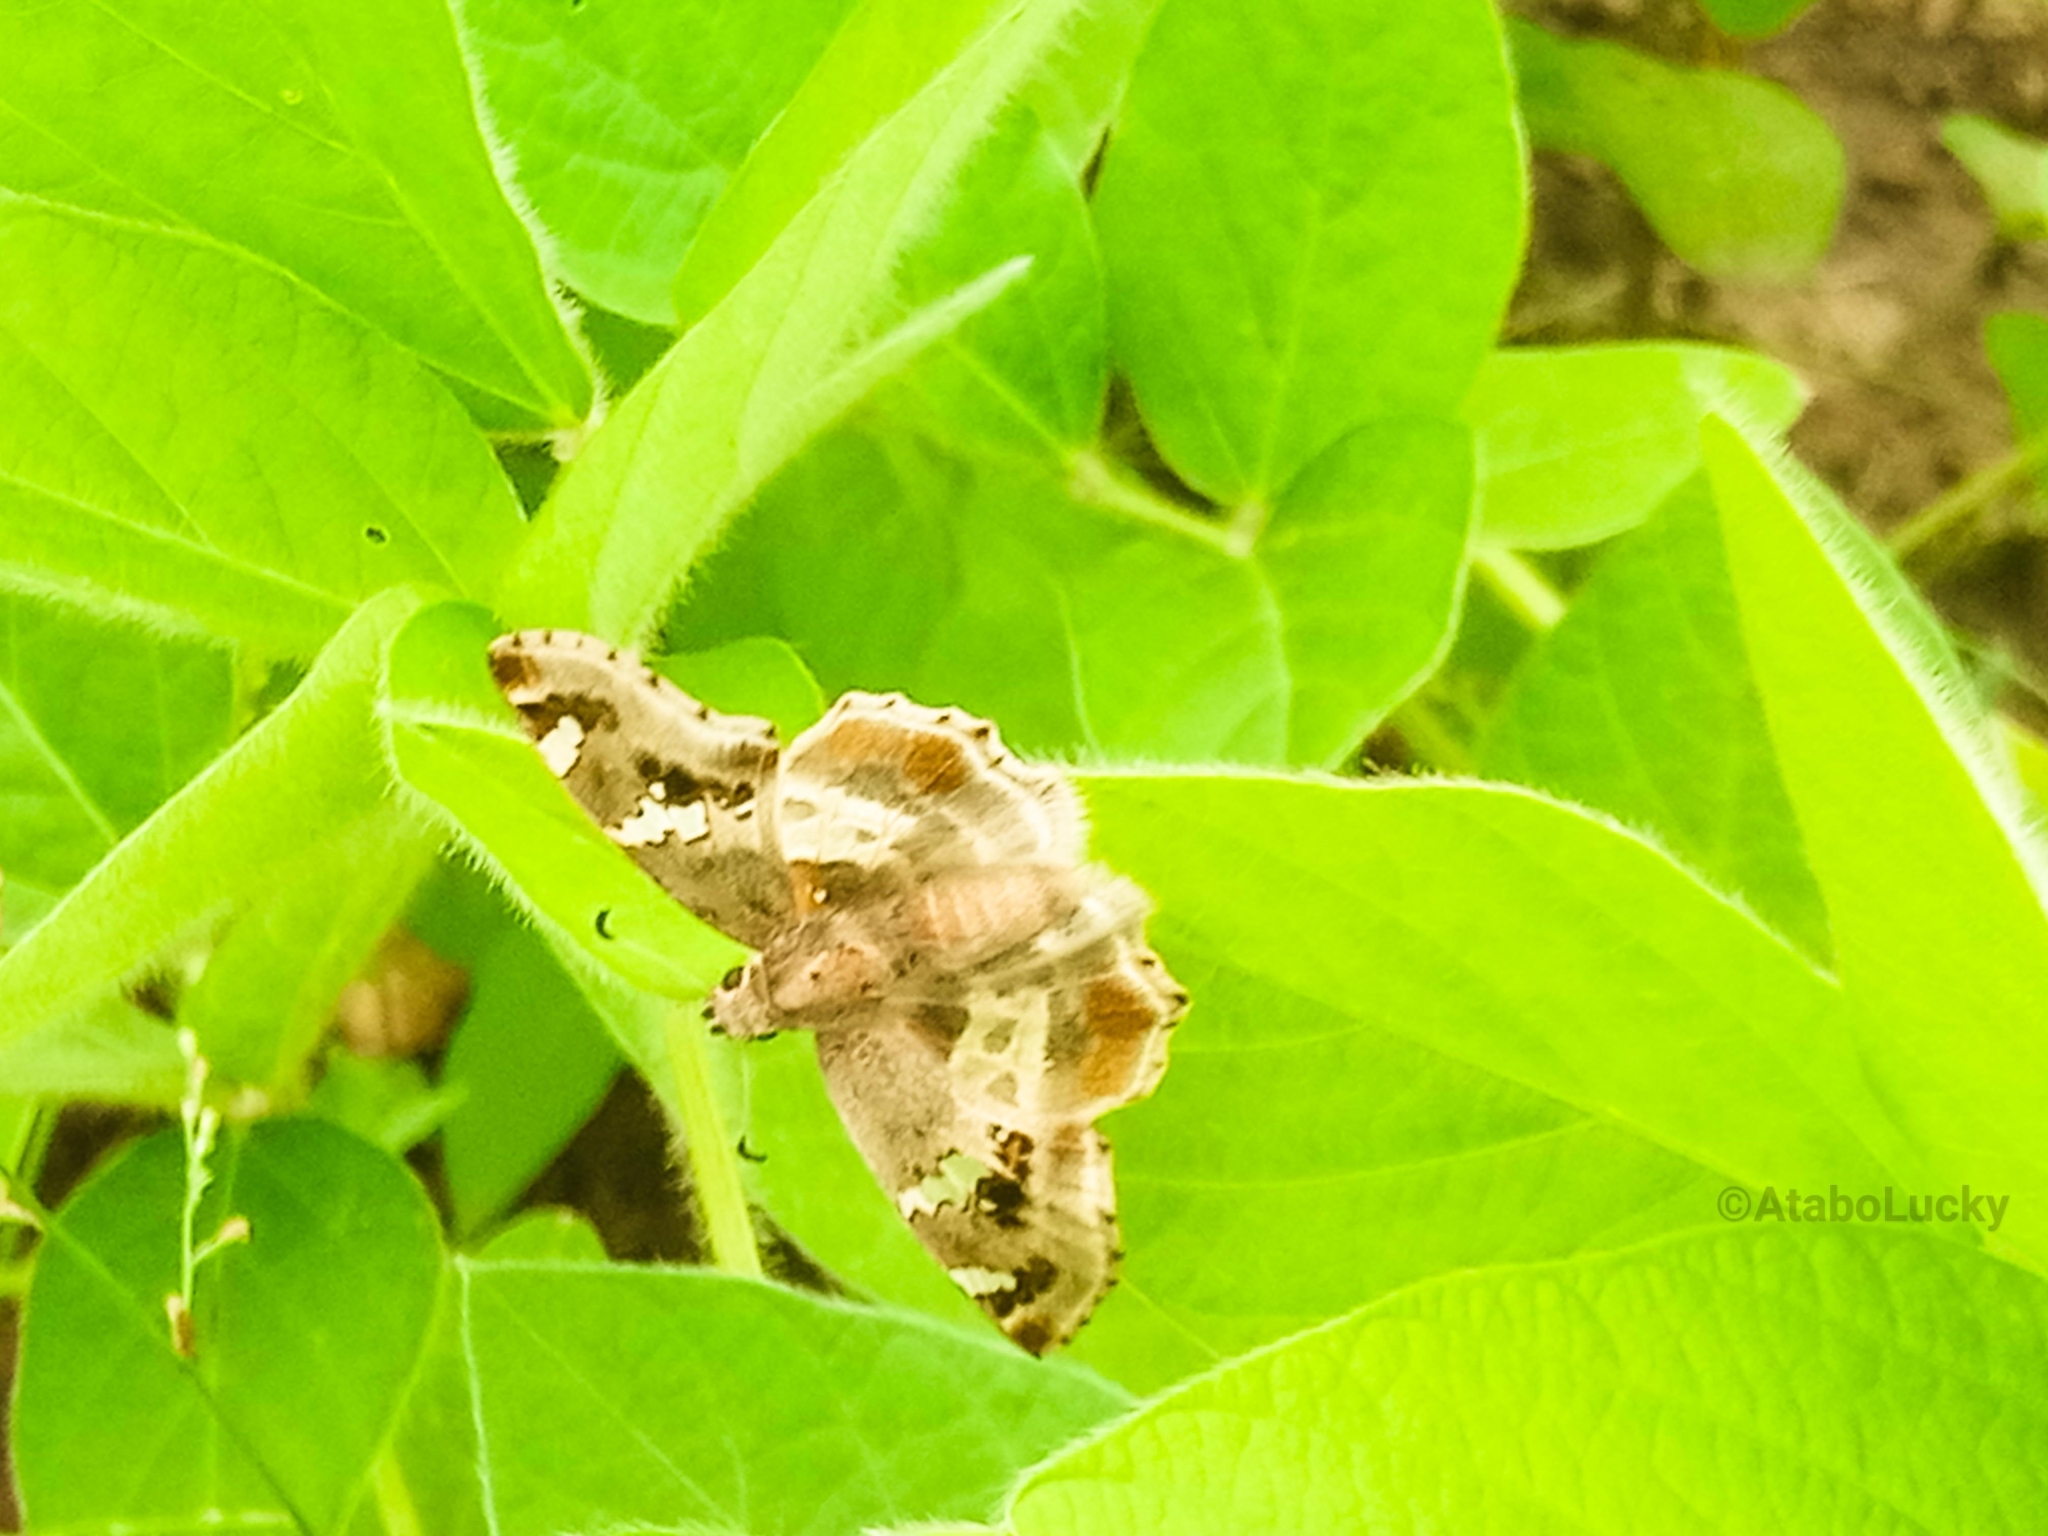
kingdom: Animalia
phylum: Arthropoda
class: Insecta
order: Lepidoptera
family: Hesperiidae
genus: Abantis
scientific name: Abantis
